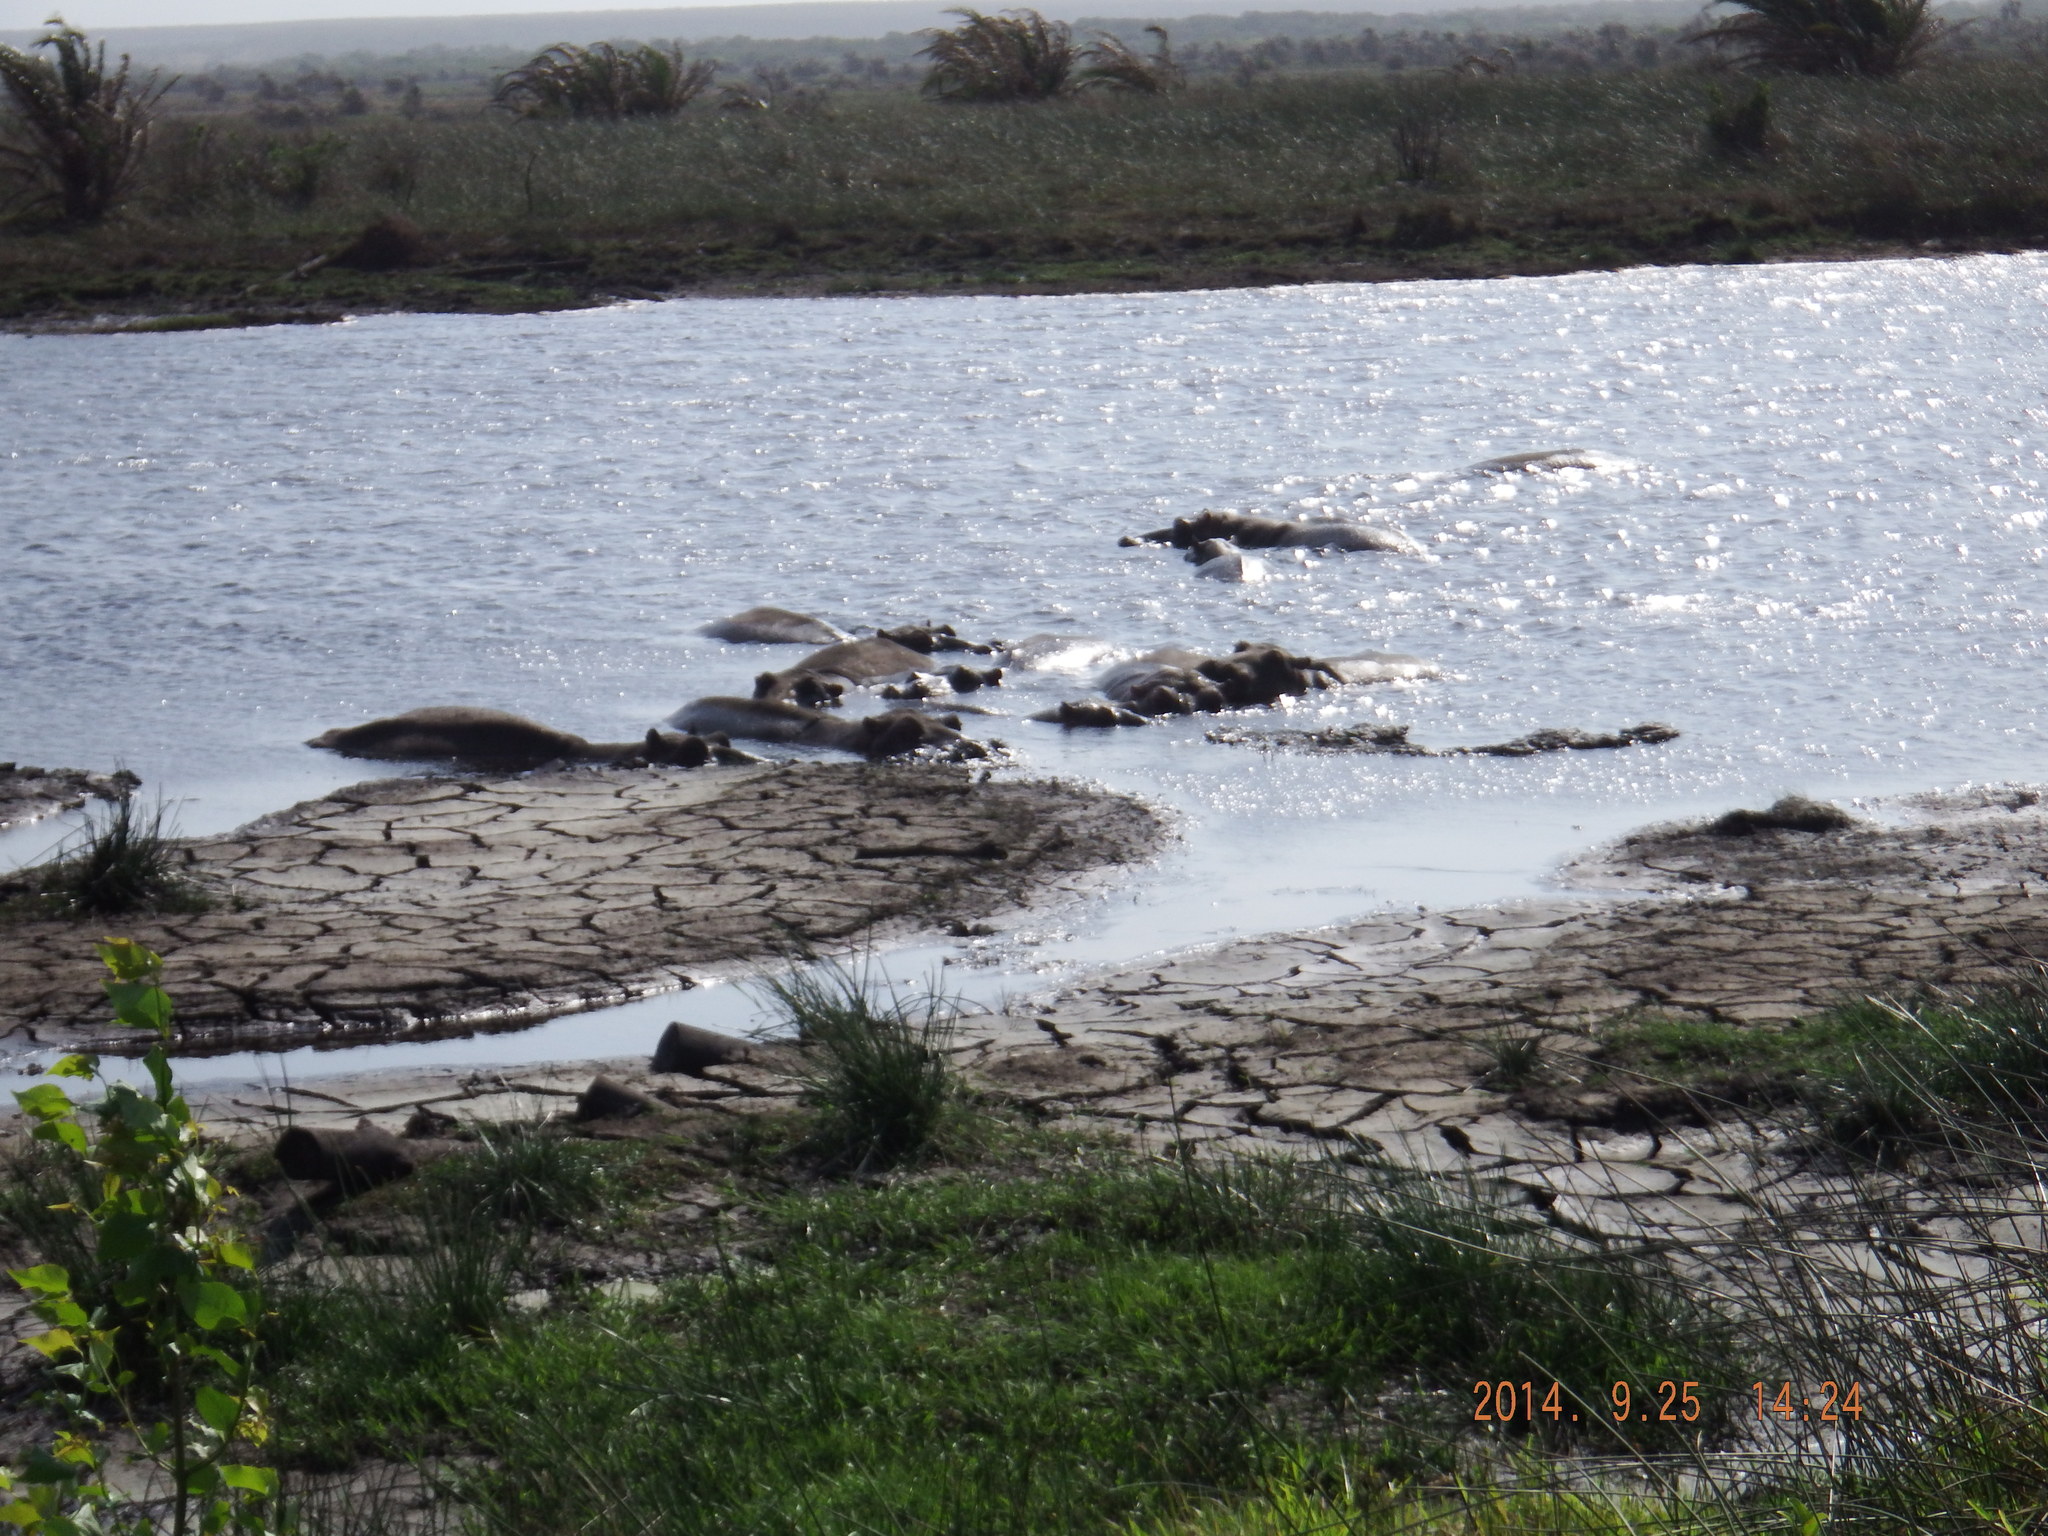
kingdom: Animalia
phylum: Chordata
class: Mammalia
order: Artiodactyla
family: Hippopotamidae
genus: Hippopotamus
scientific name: Hippopotamus amphibius
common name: Common hippopotamus
